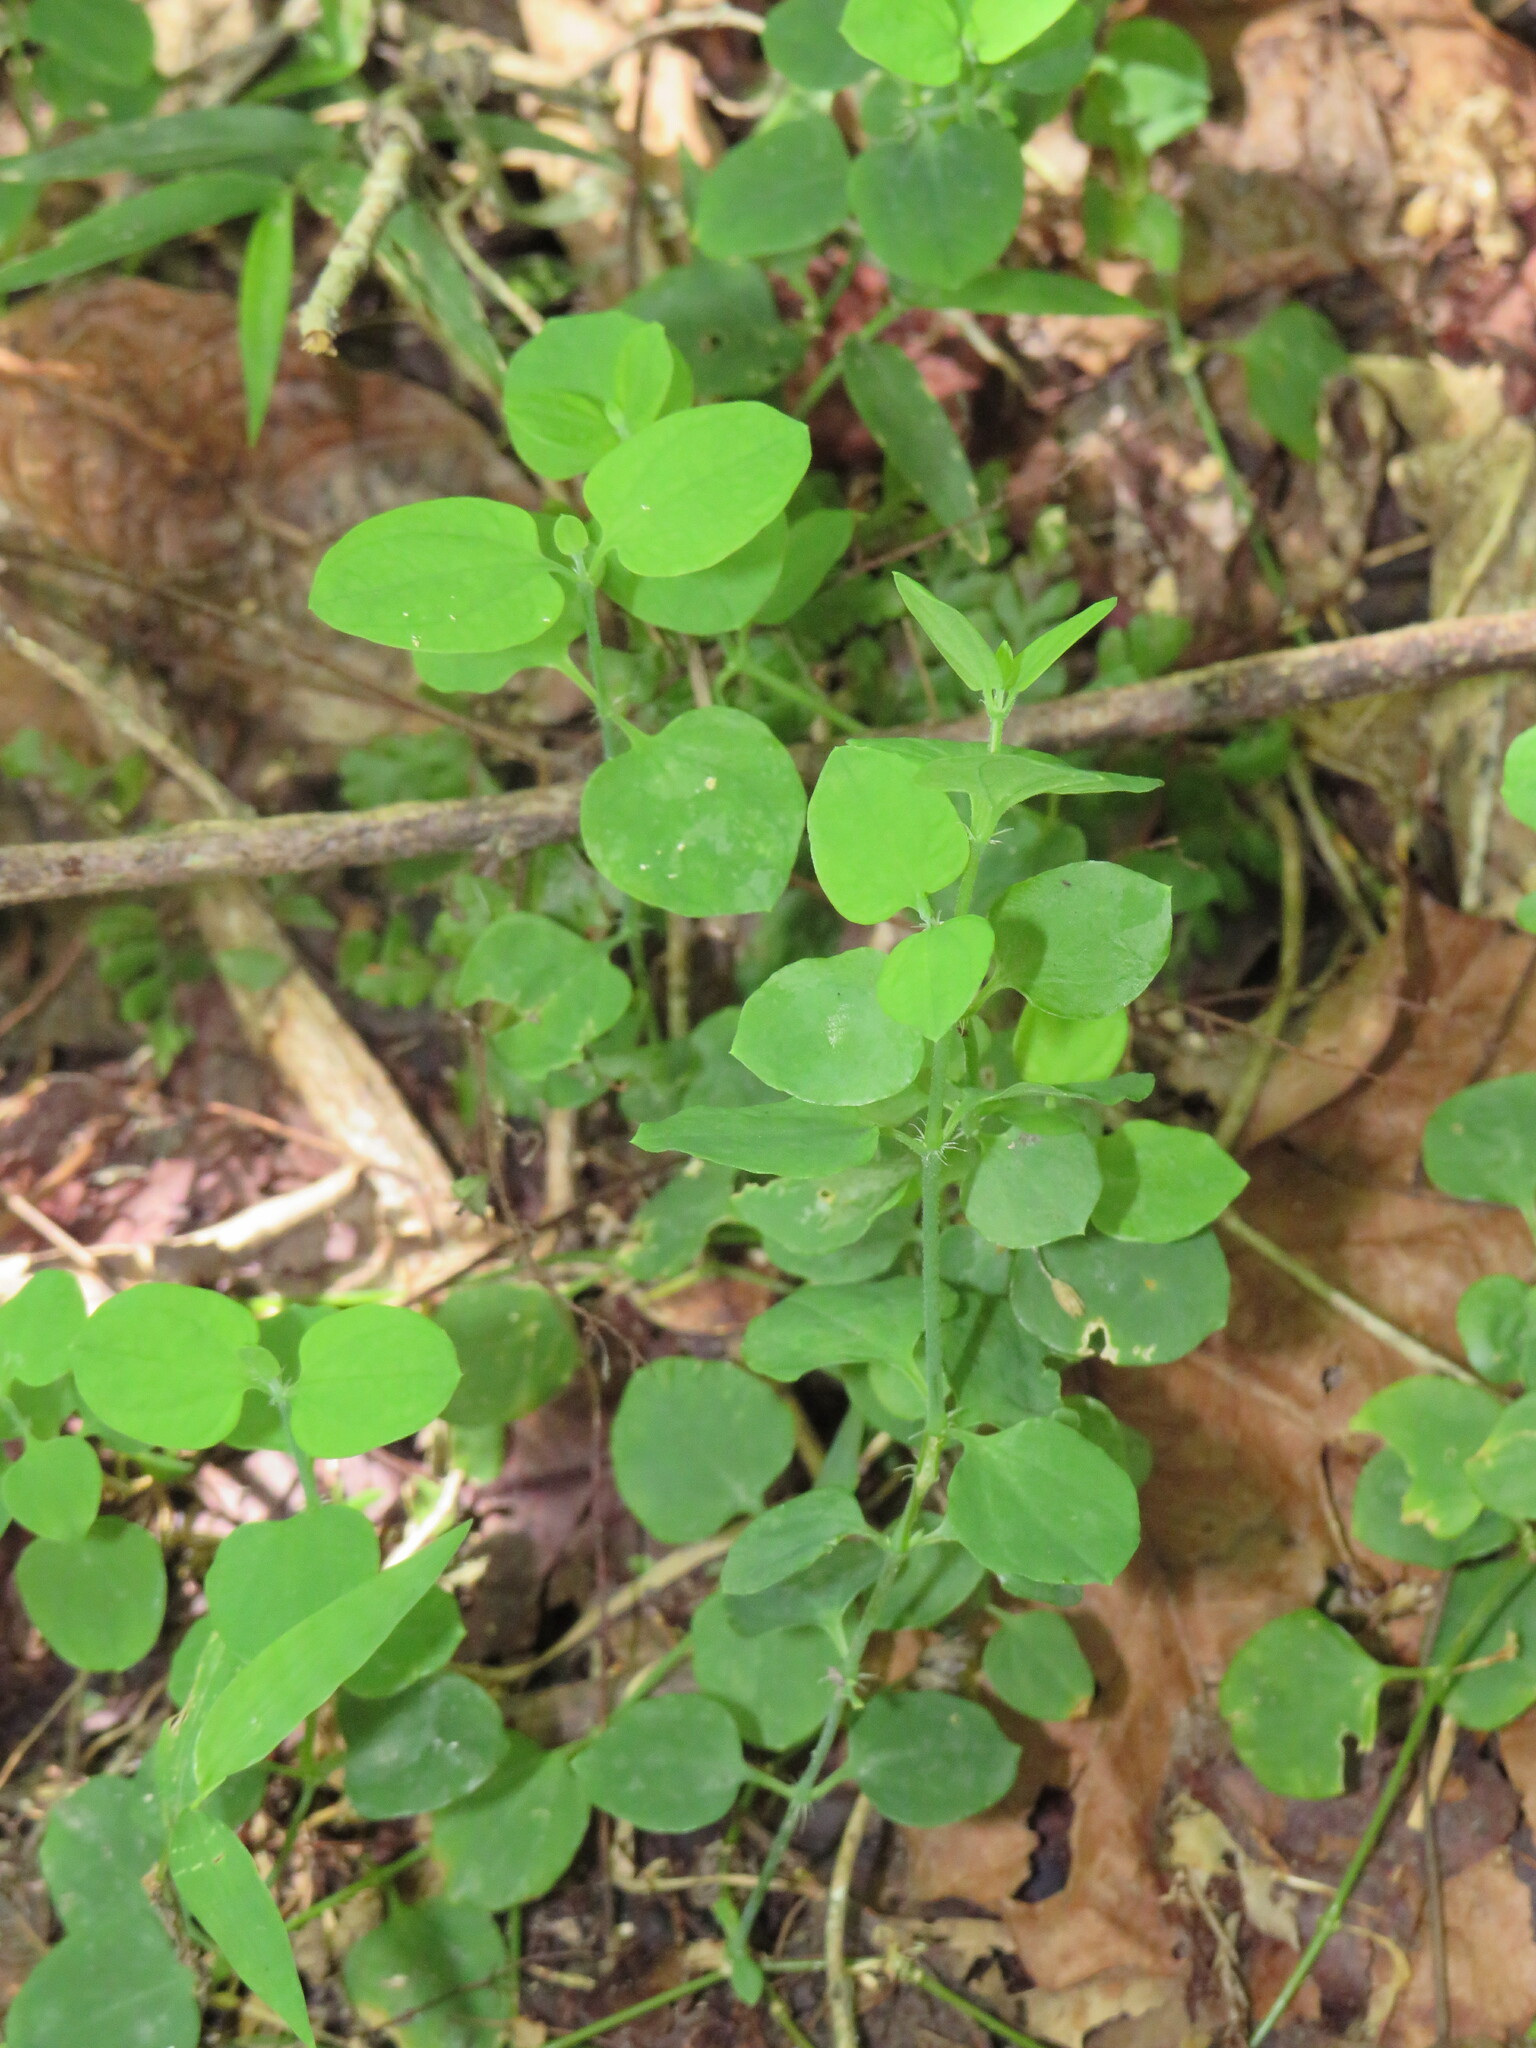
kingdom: Plantae
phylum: Tracheophyta
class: Magnoliopsida
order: Caryophyllales
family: Caryophyllaceae
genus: Drymaria
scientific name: Drymaria cordata
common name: Whitesnow
